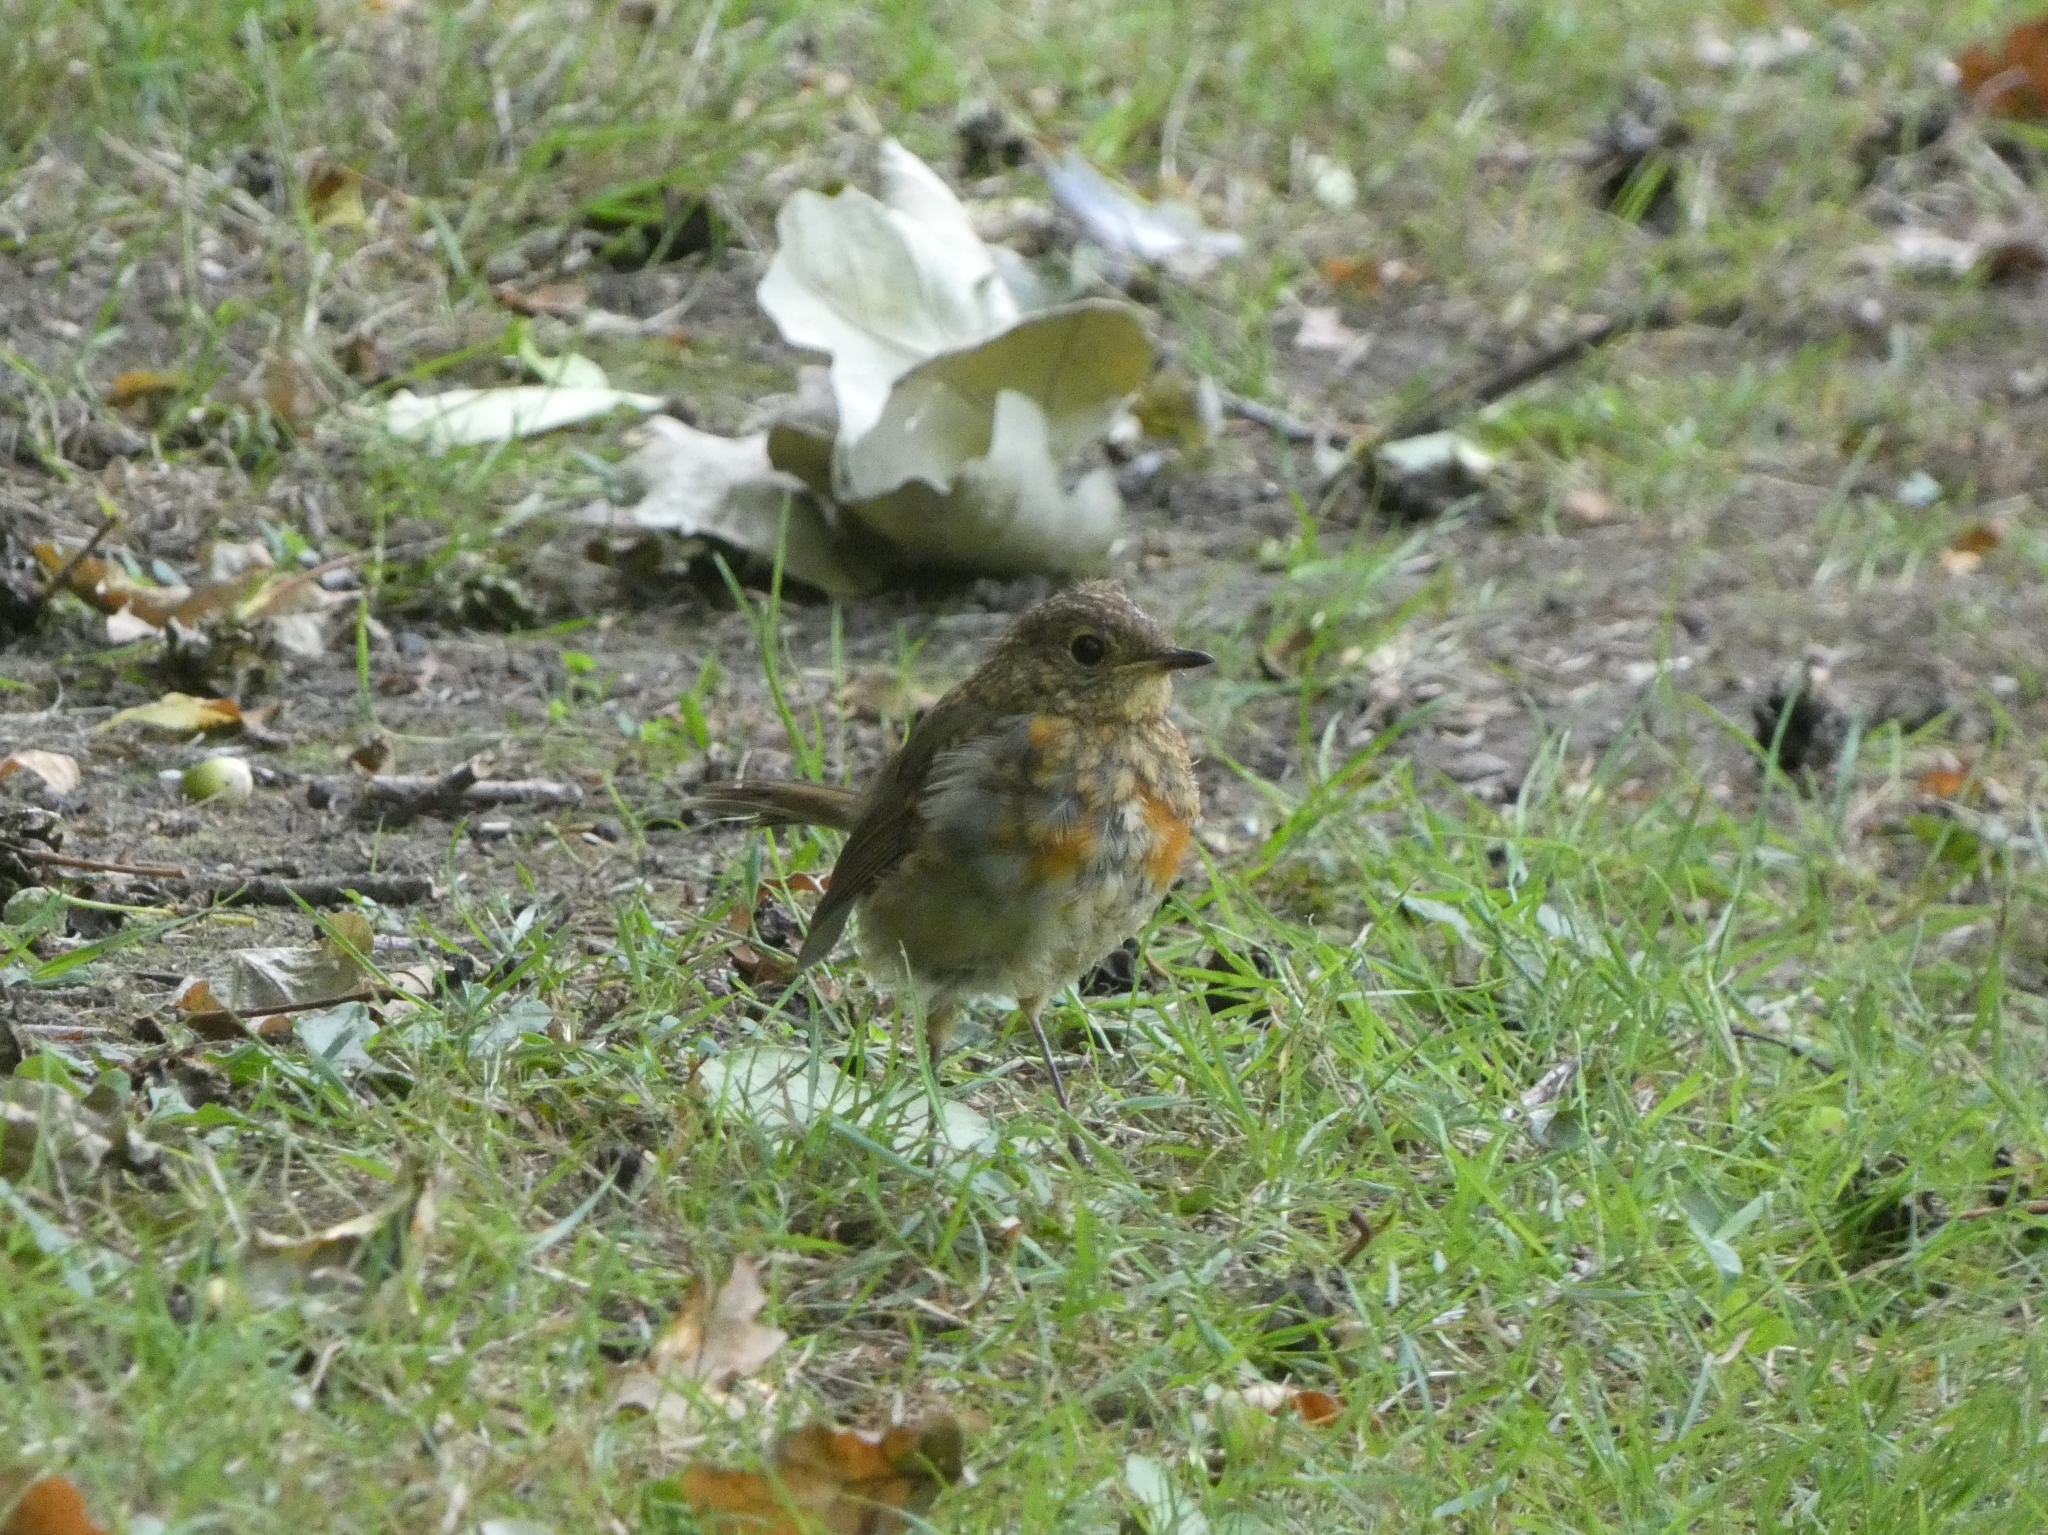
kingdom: Animalia
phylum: Chordata
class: Aves
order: Passeriformes
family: Muscicapidae
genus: Erithacus
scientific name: Erithacus rubecula
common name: European robin
